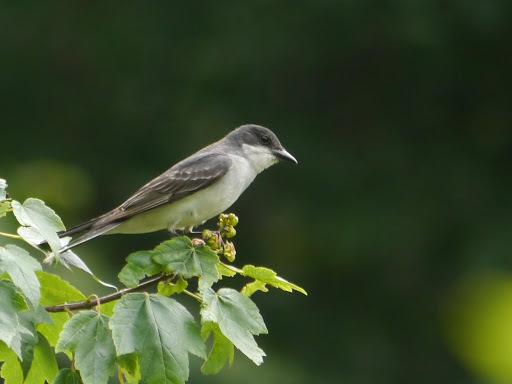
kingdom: Animalia
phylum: Chordata
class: Aves
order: Passeriformes
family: Tyrannidae
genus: Tyrannus
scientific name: Tyrannus tyrannus
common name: Eastern kingbird
